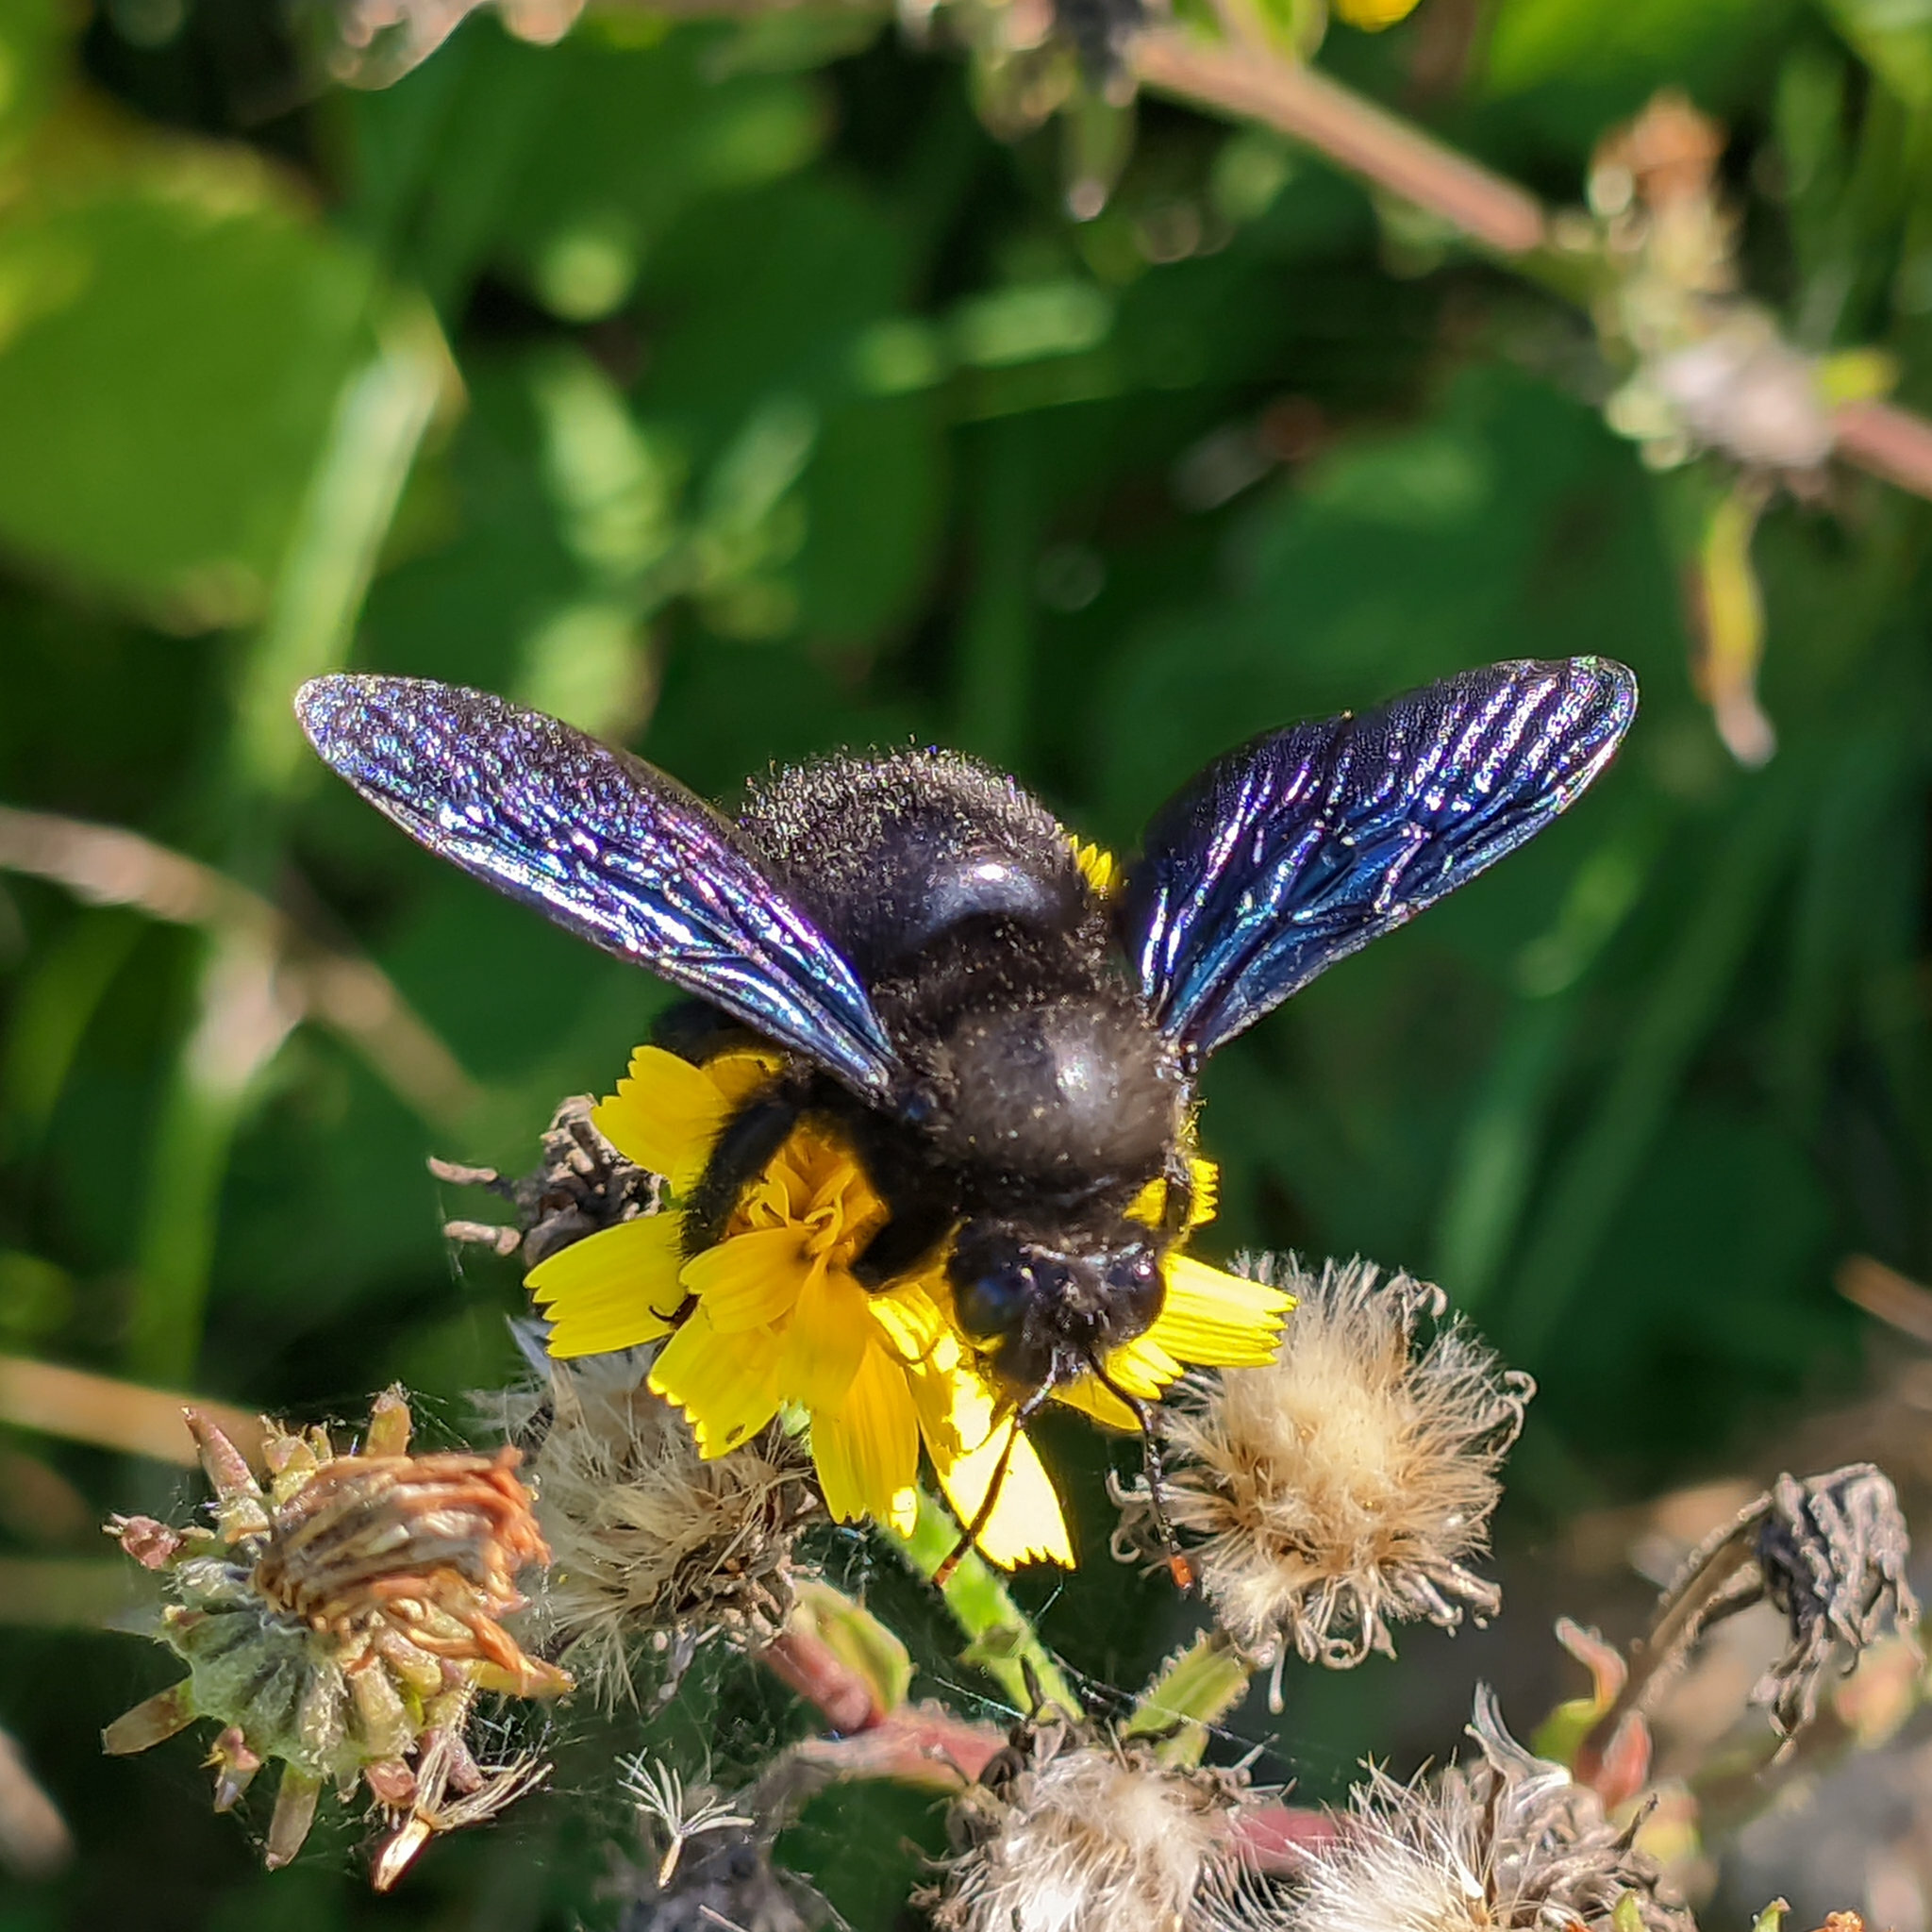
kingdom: Animalia
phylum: Arthropoda
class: Insecta
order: Hymenoptera
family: Apidae
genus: Xylocopa
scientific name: Xylocopa violacea
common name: Violet carpenter bee
